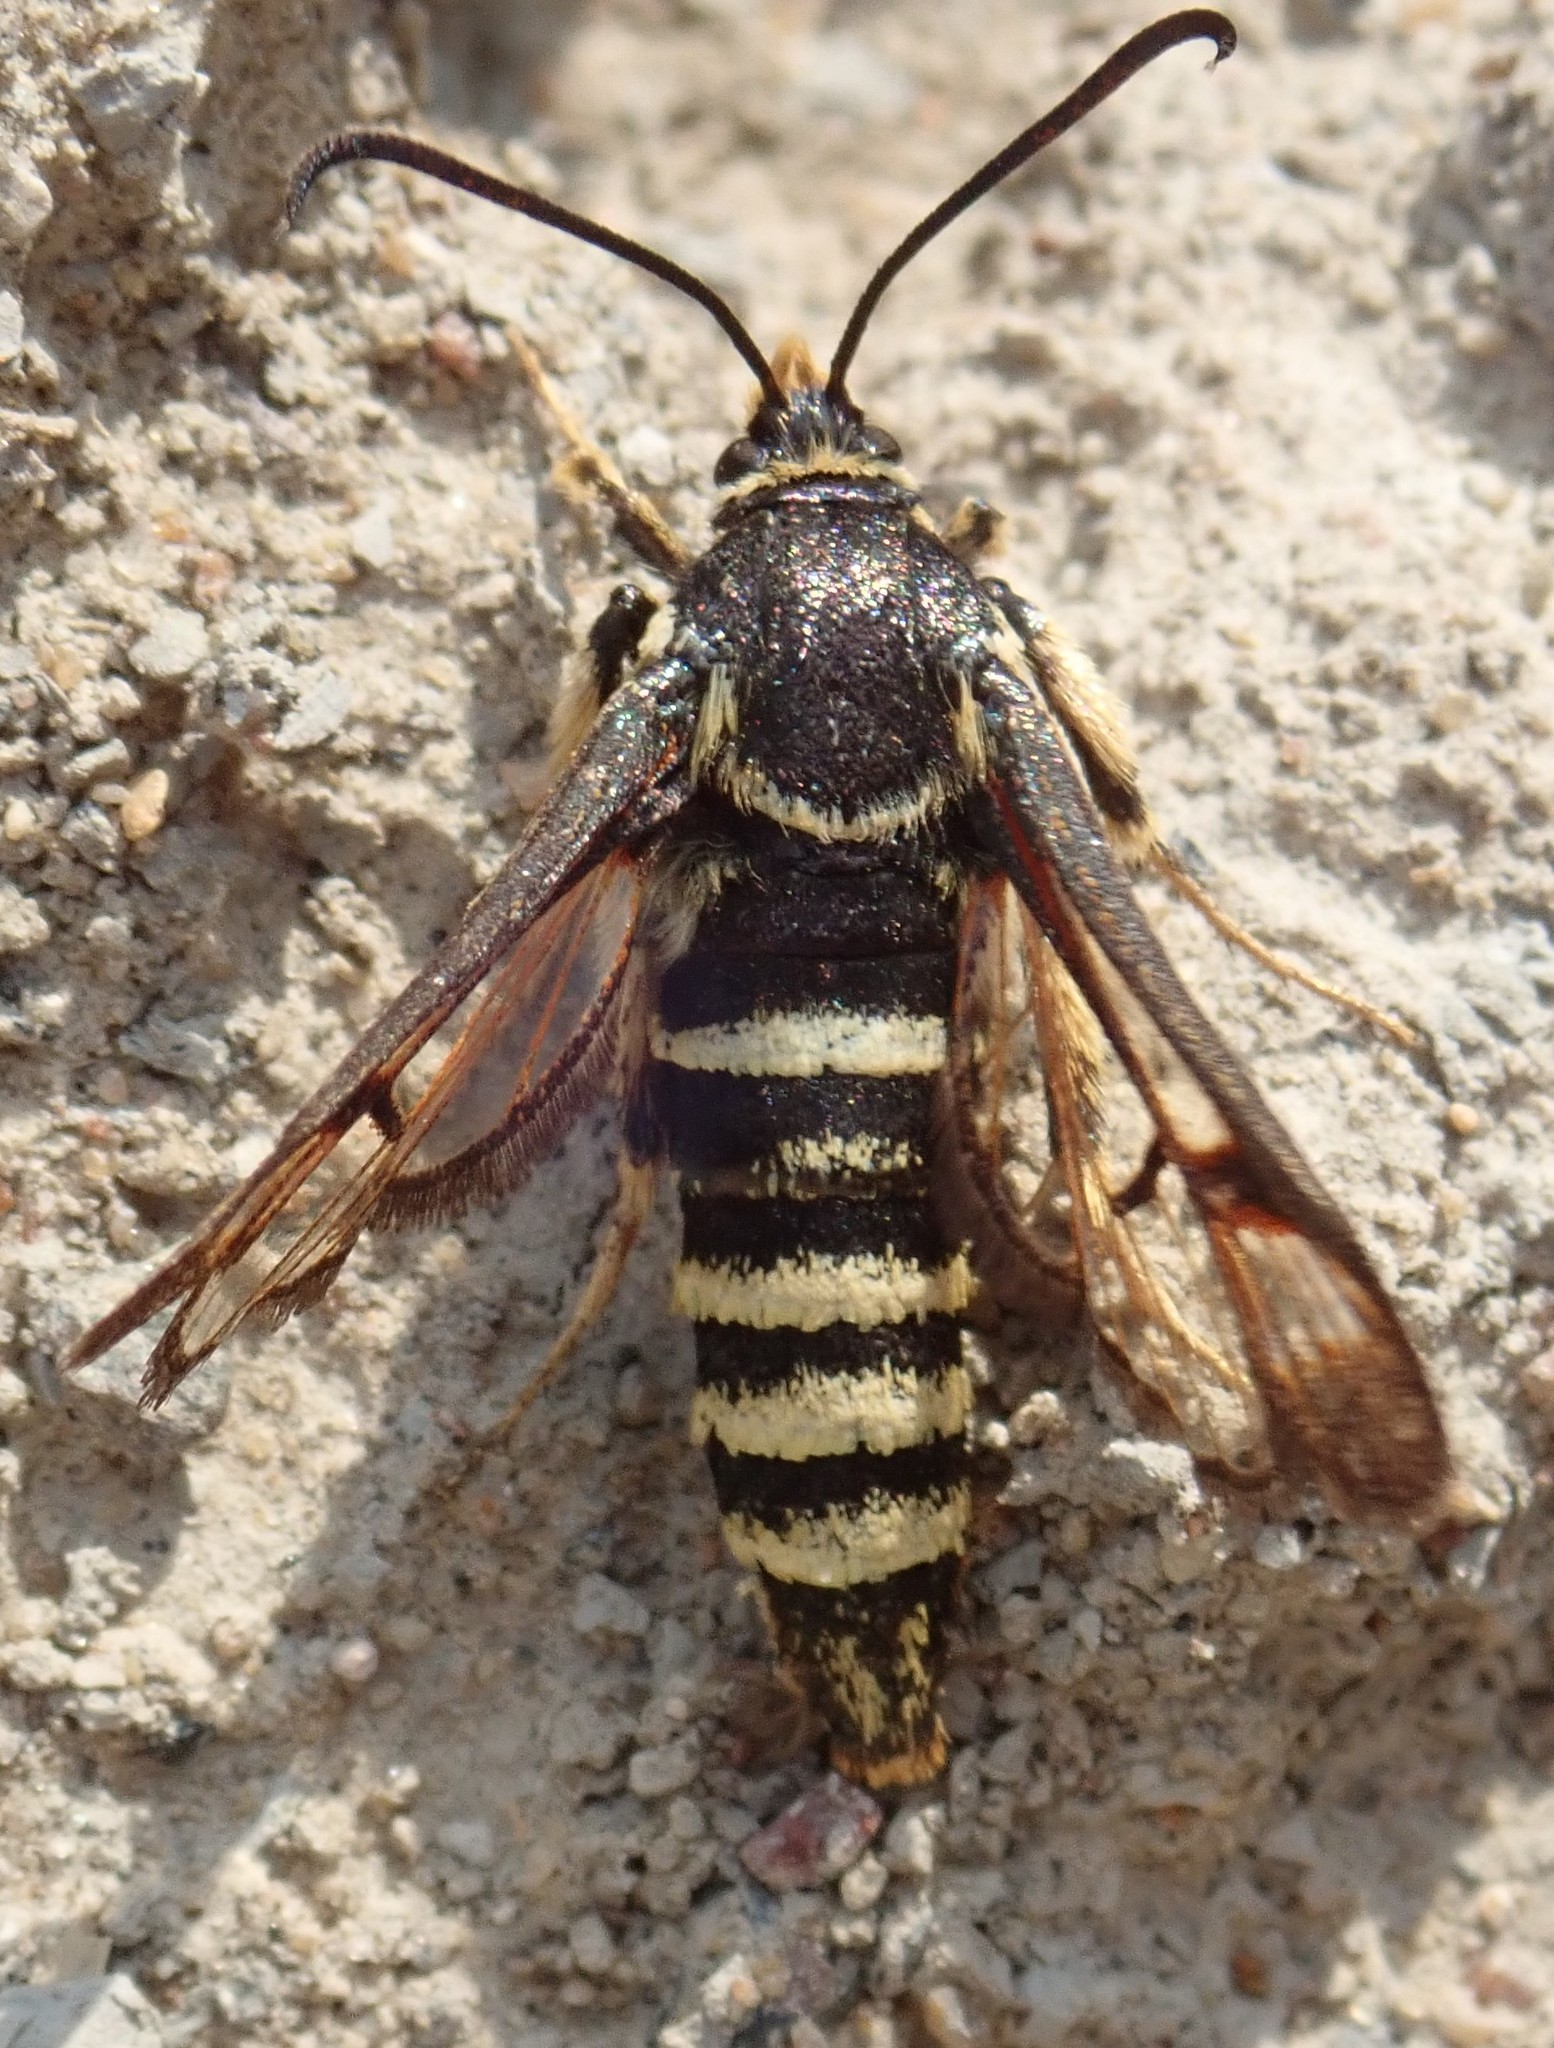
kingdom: Animalia
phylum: Arthropoda
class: Insecta
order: Lepidoptera
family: Sesiidae
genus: Albuna
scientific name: Albuna pyramidalis
